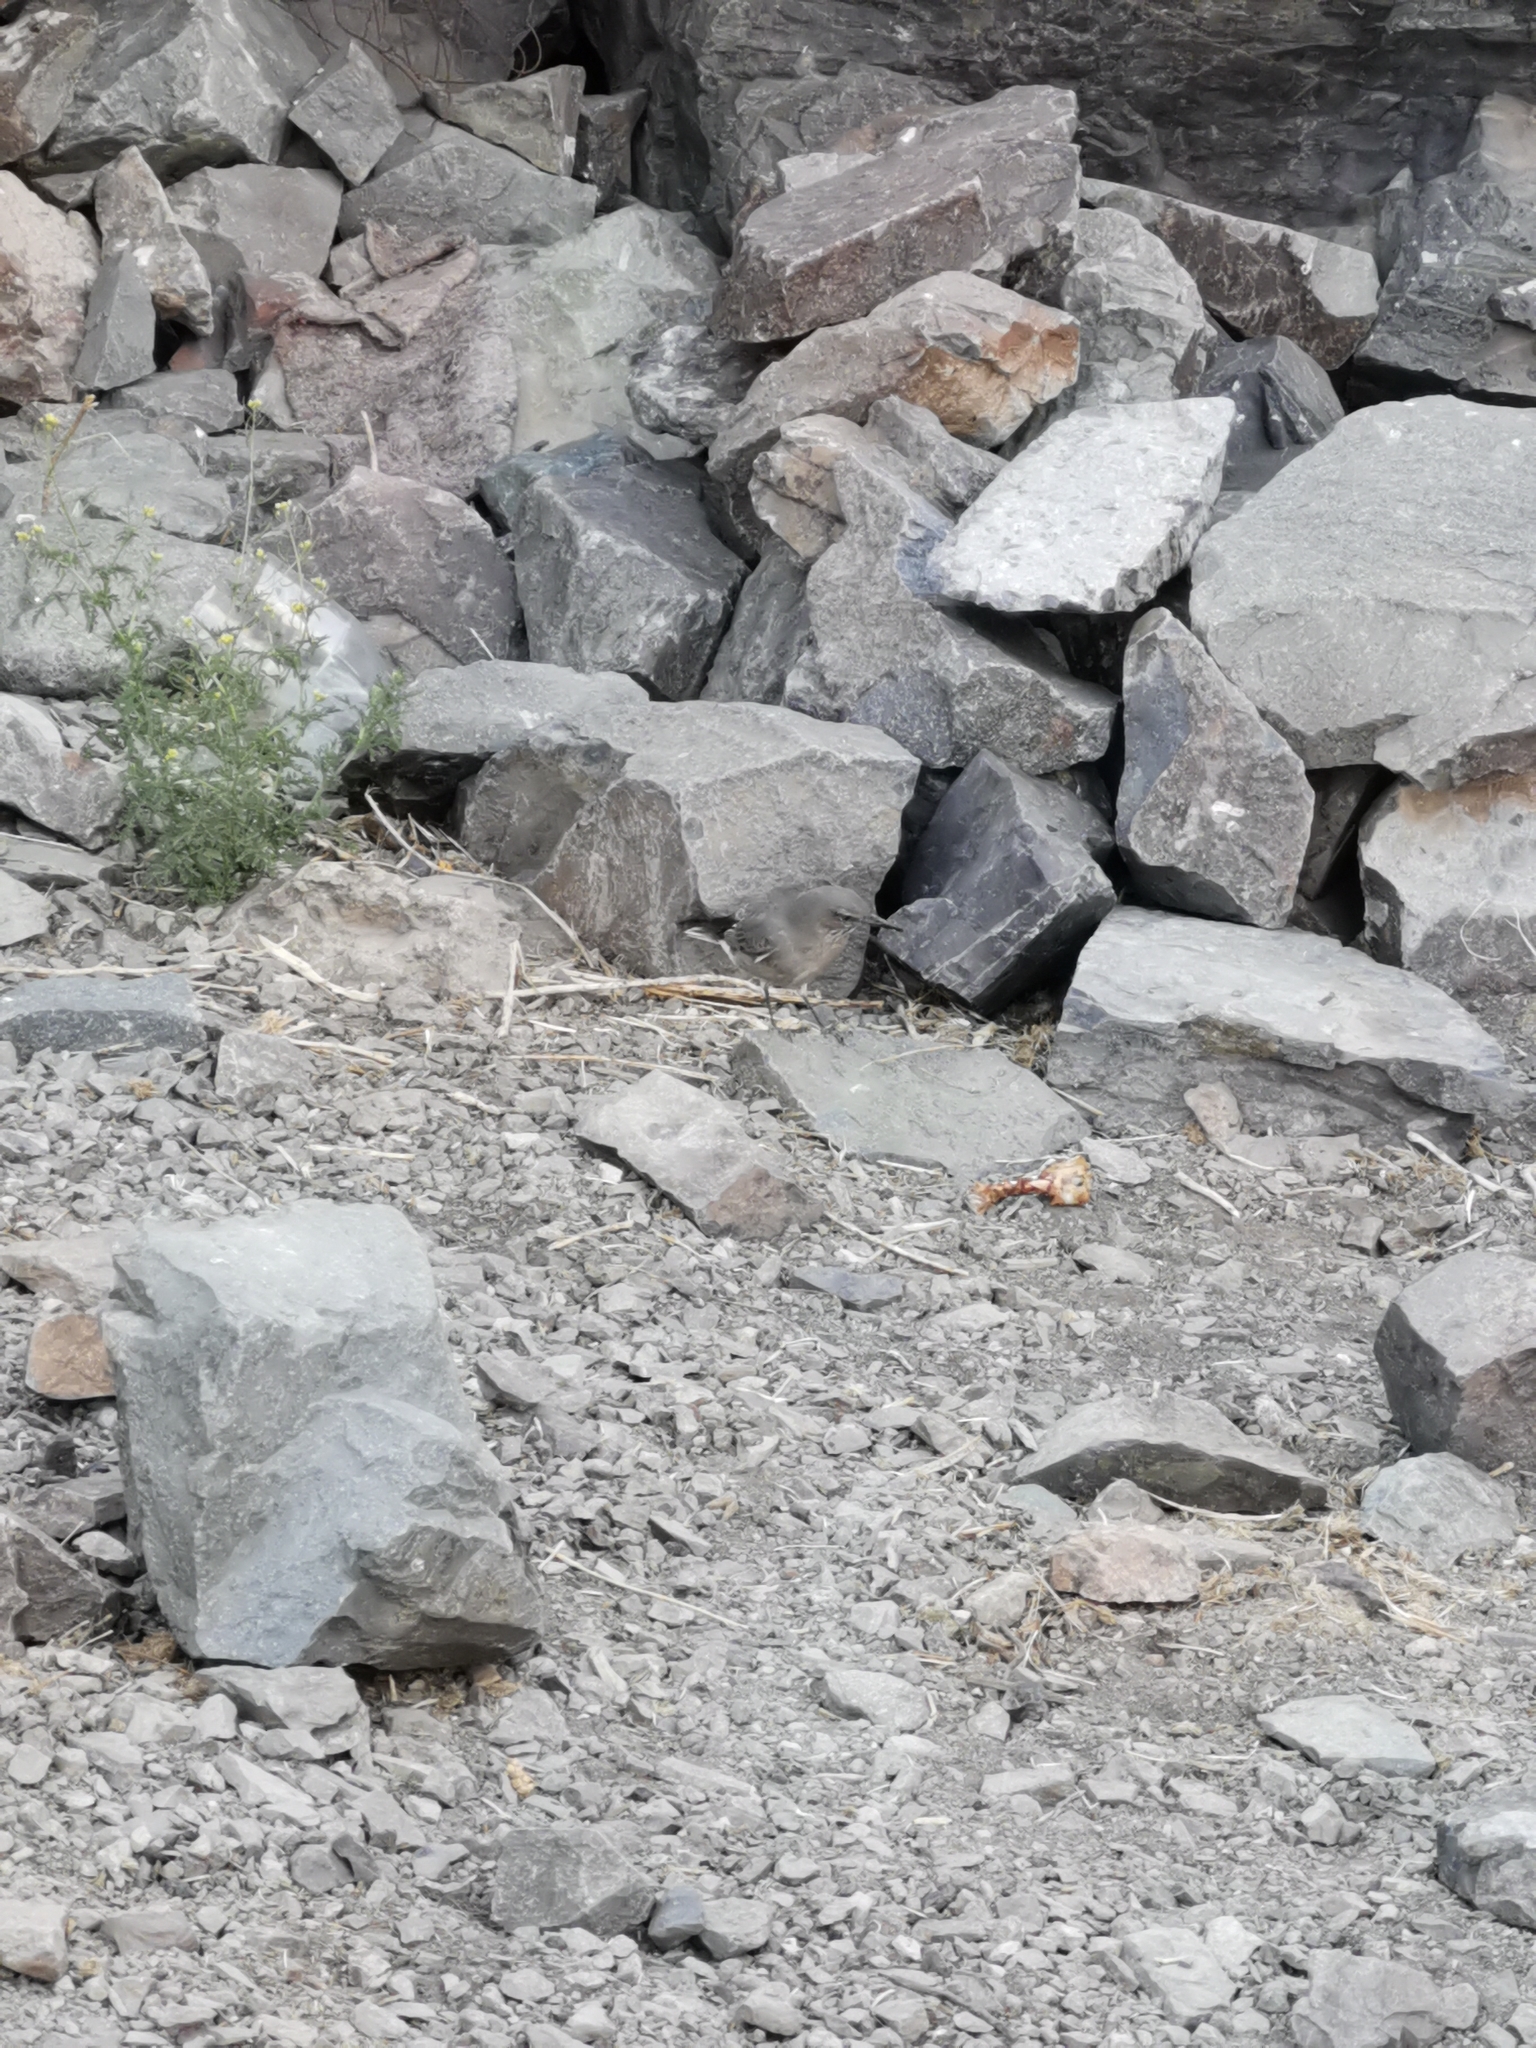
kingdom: Animalia
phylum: Chordata
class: Aves
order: Passeriformes
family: Tyrannidae
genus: Agriornis
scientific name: Agriornis montanus
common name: Black-billed shrike-tyrant
